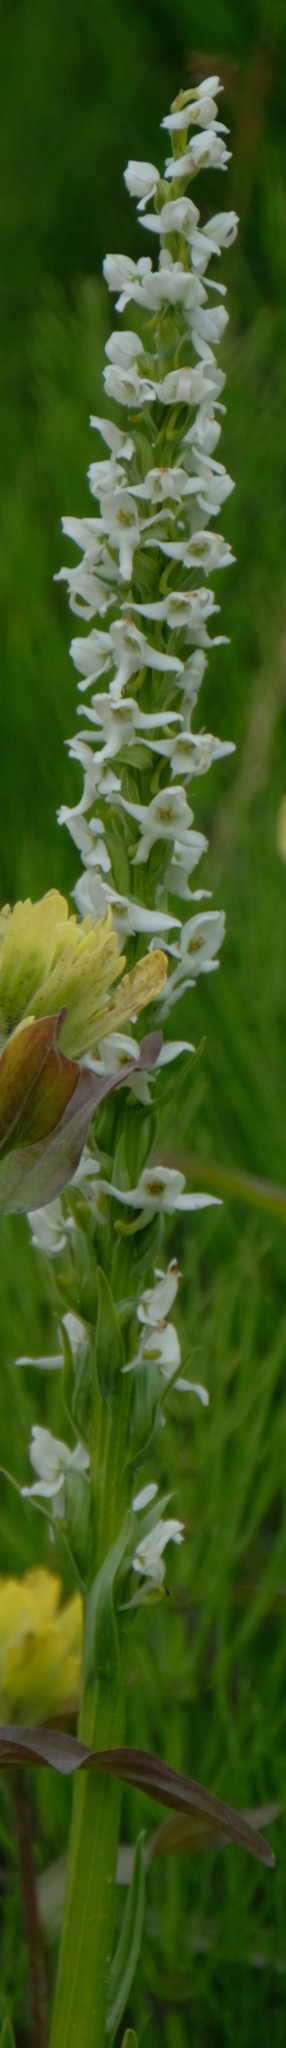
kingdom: Plantae
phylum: Tracheophyta
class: Liliopsida
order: Asparagales
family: Orchidaceae
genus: Platanthera
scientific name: Platanthera dilatata
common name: Bog candles
